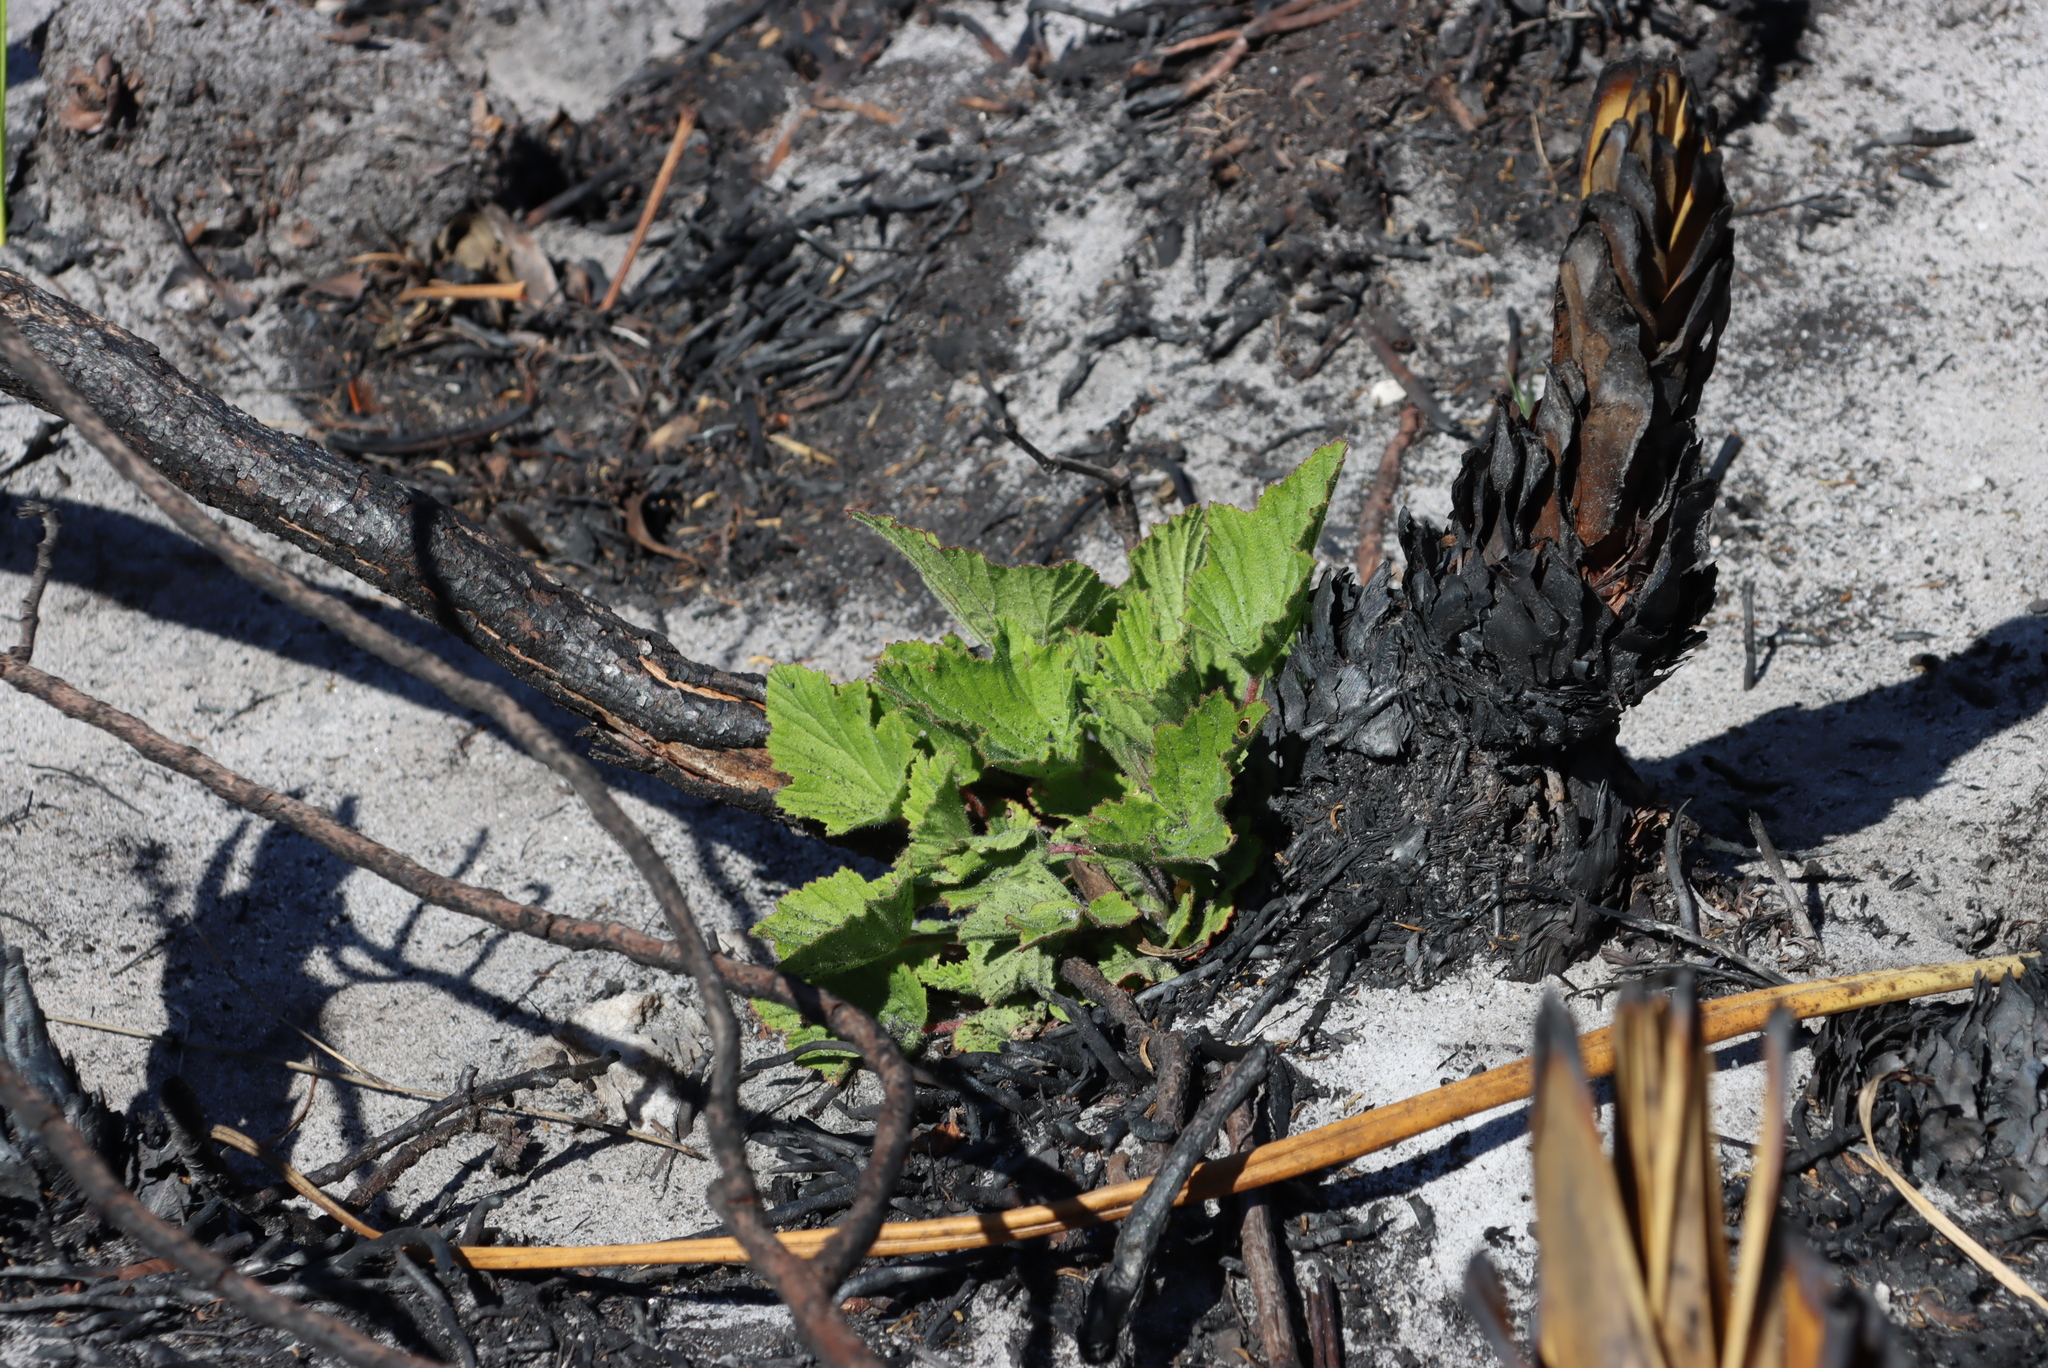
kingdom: Plantae
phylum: Tracheophyta
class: Magnoliopsida
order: Geraniales
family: Geraniaceae
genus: Pelargonium
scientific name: Pelargonium cucullatum
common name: Tree pelargonium
